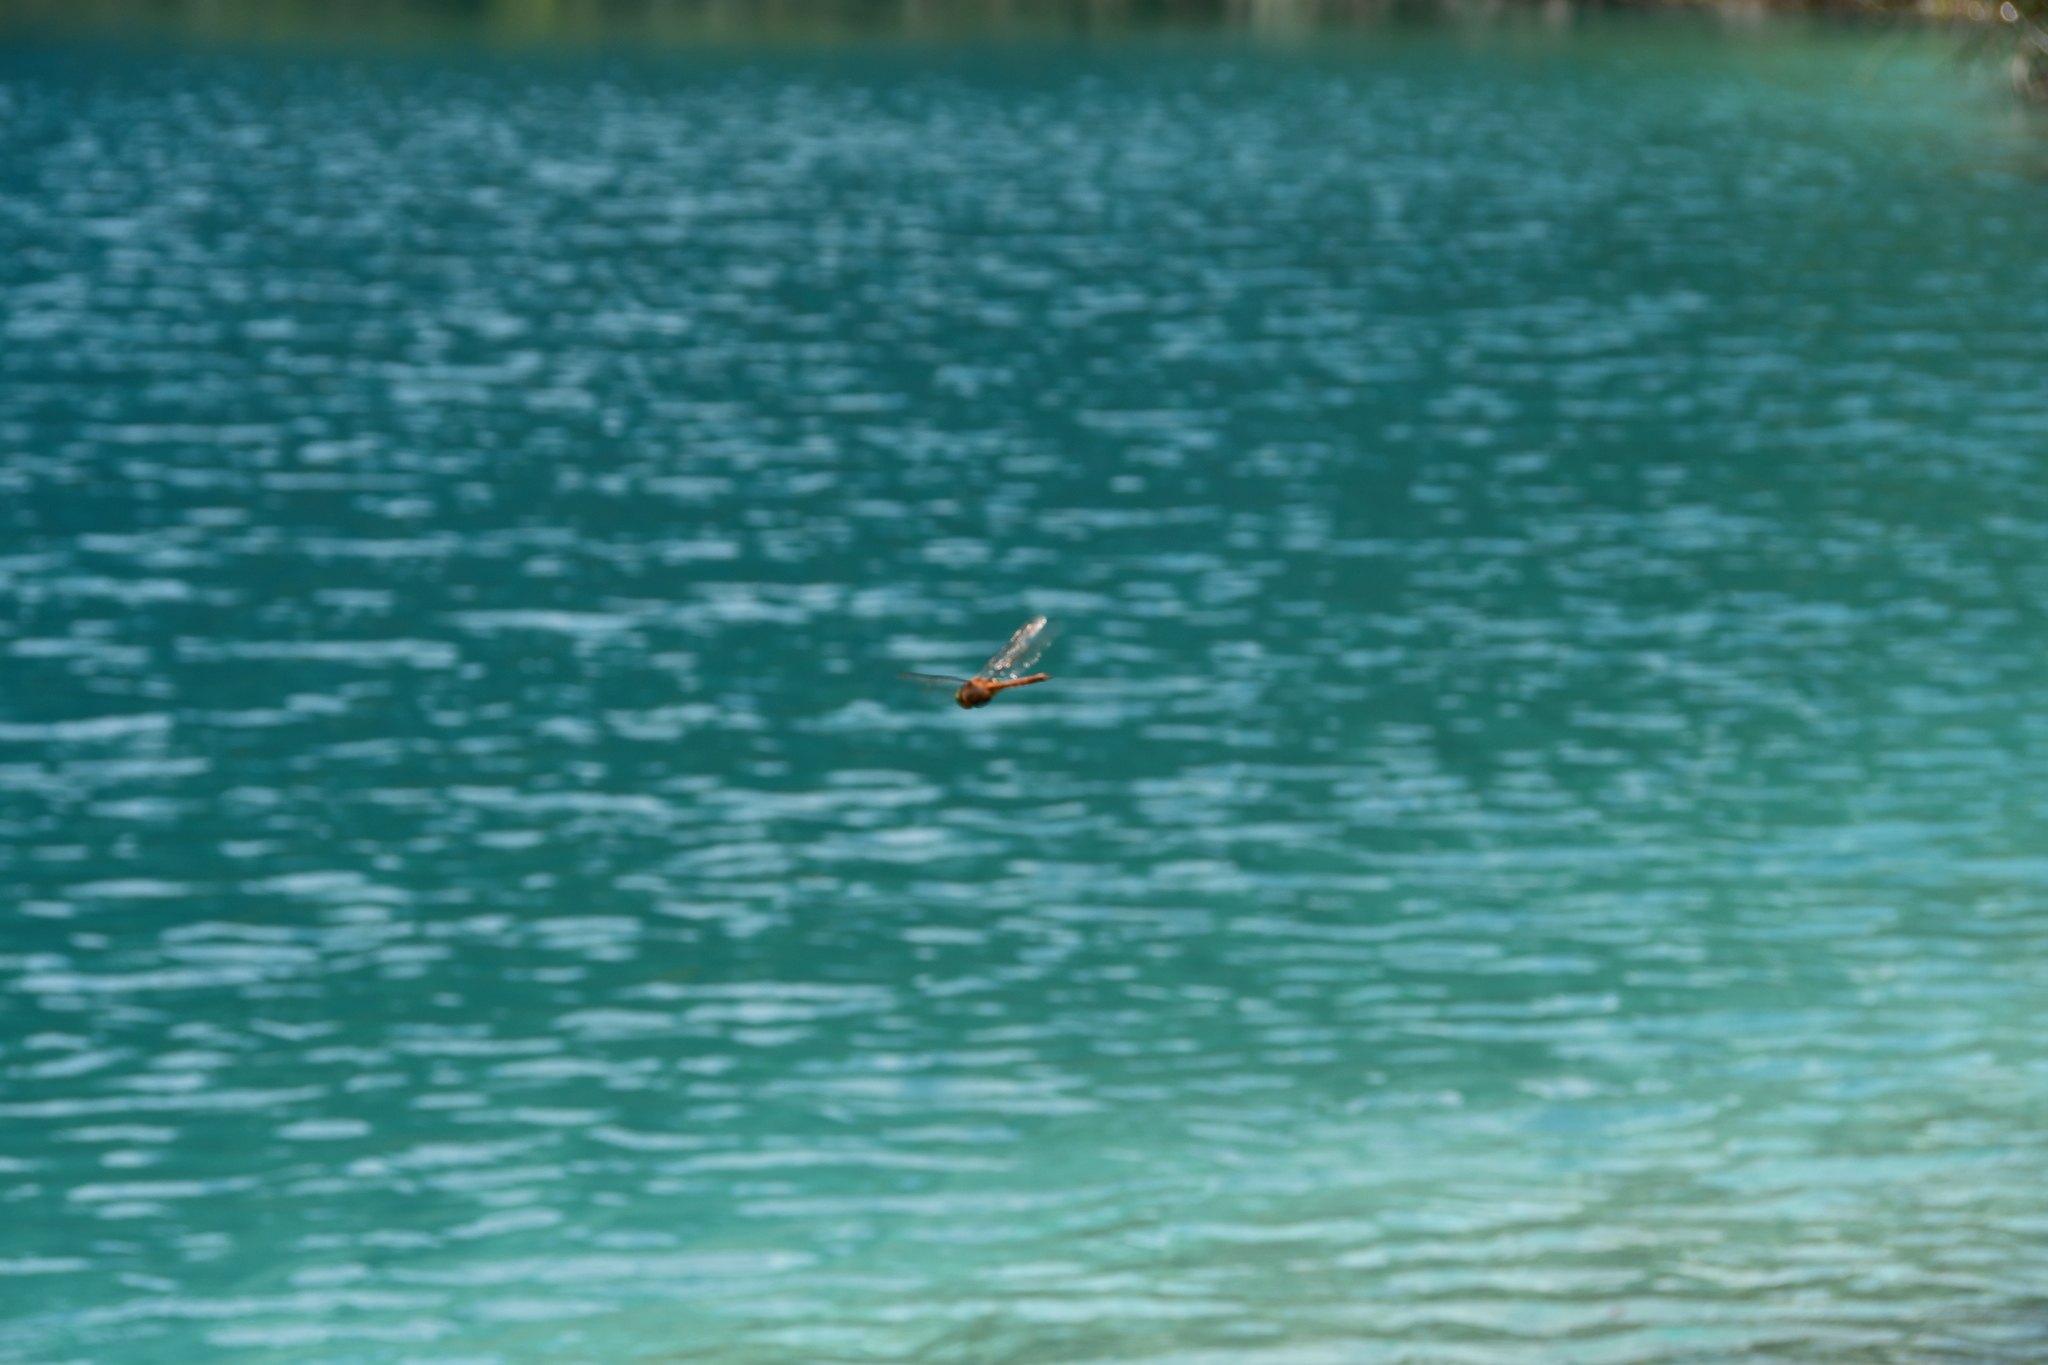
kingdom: Animalia
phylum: Arthropoda
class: Insecta
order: Odonata
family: Aeshnidae
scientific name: Aeshnidae
